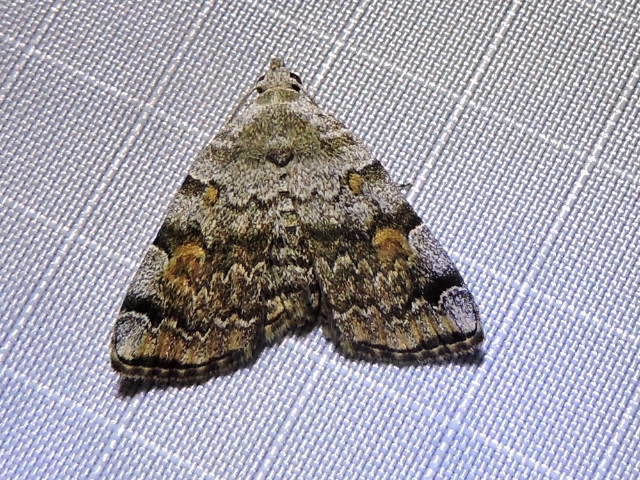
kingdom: Animalia
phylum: Arthropoda
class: Insecta
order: Lepidoptera
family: Erebidae
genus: Idia
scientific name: Idia americalis
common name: American idia moth
